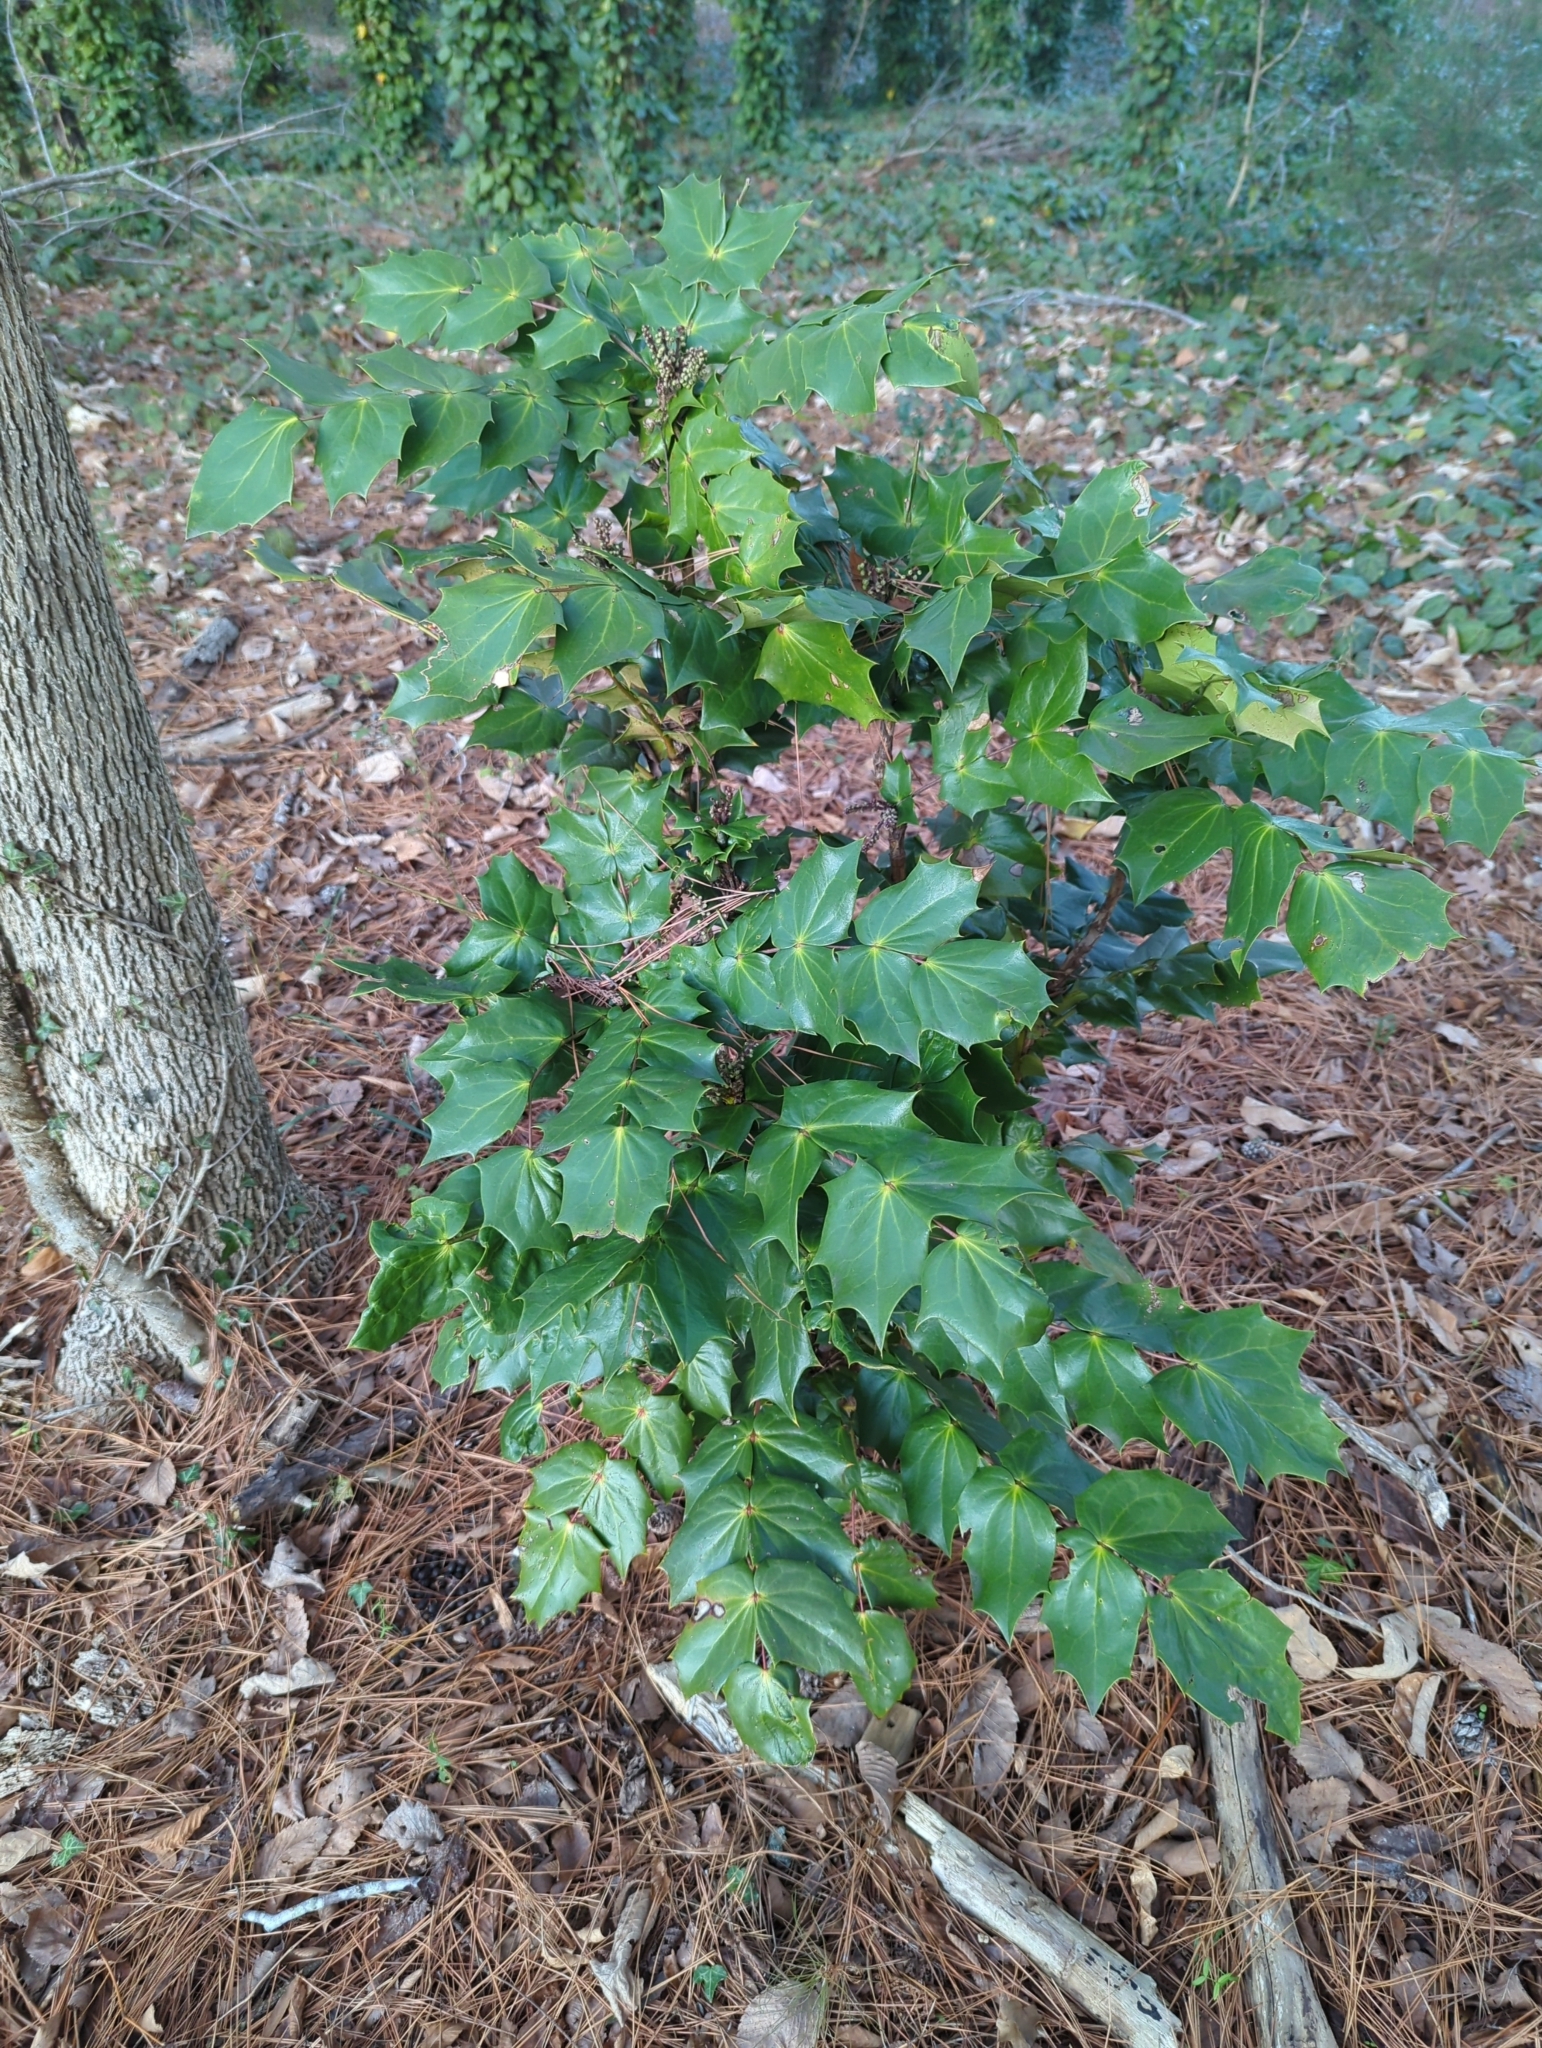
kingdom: Plantae
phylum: Tracheophyta
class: Magnoliopsida
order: Ranunculales
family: Berberidaceae
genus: Mahonia
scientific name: Mahonia bealei
